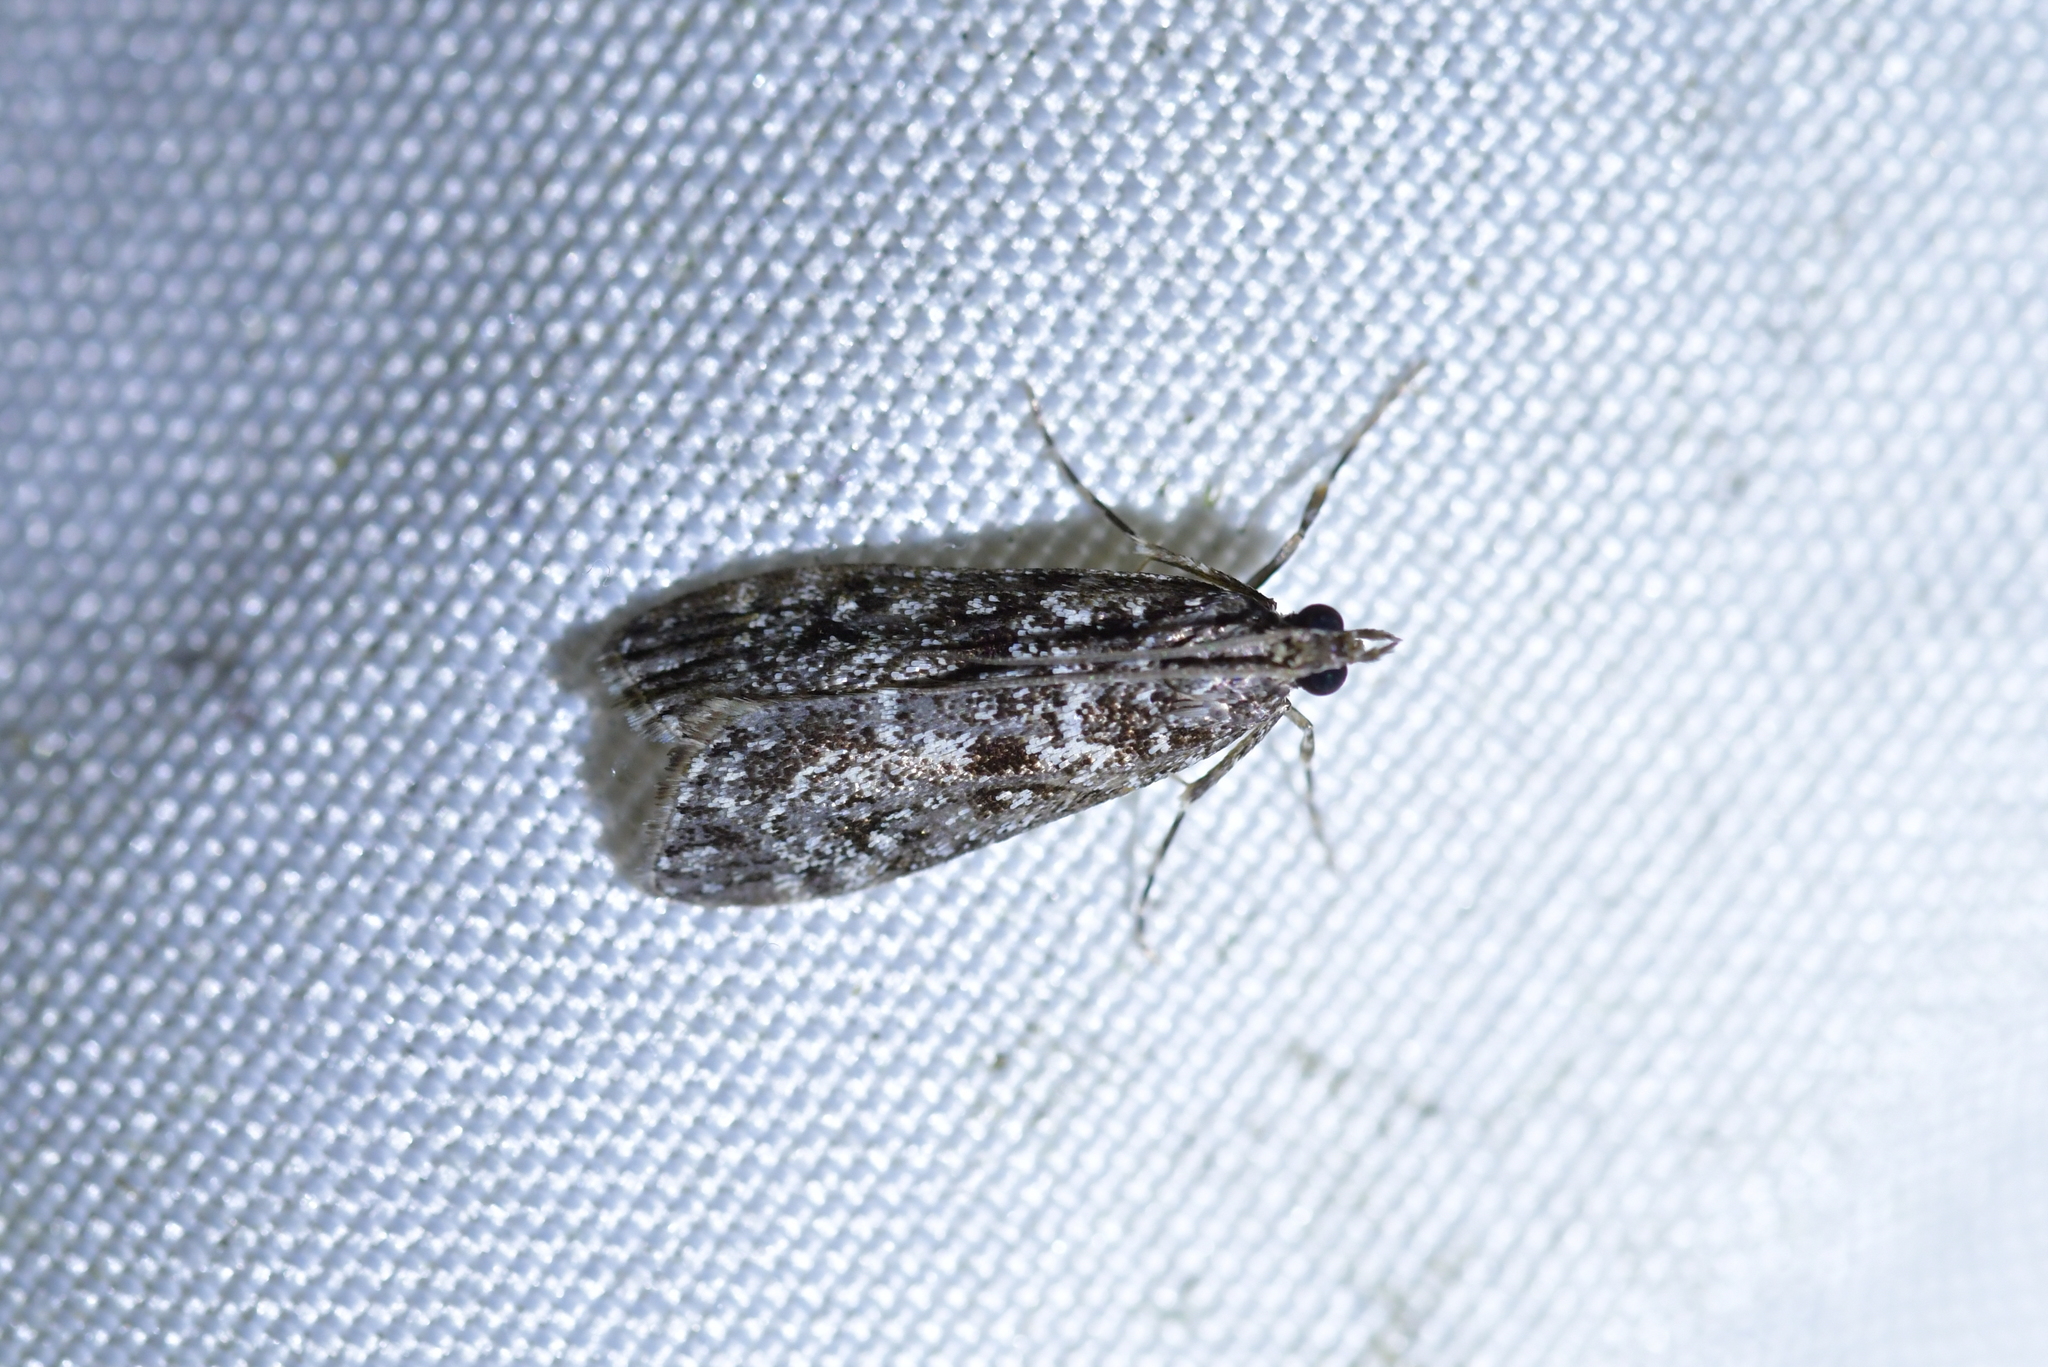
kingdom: Animalia
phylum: Arthropoda
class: Insecta
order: Lepidoptera
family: Crambidae
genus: Eudonia
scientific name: Eudonia philerga
